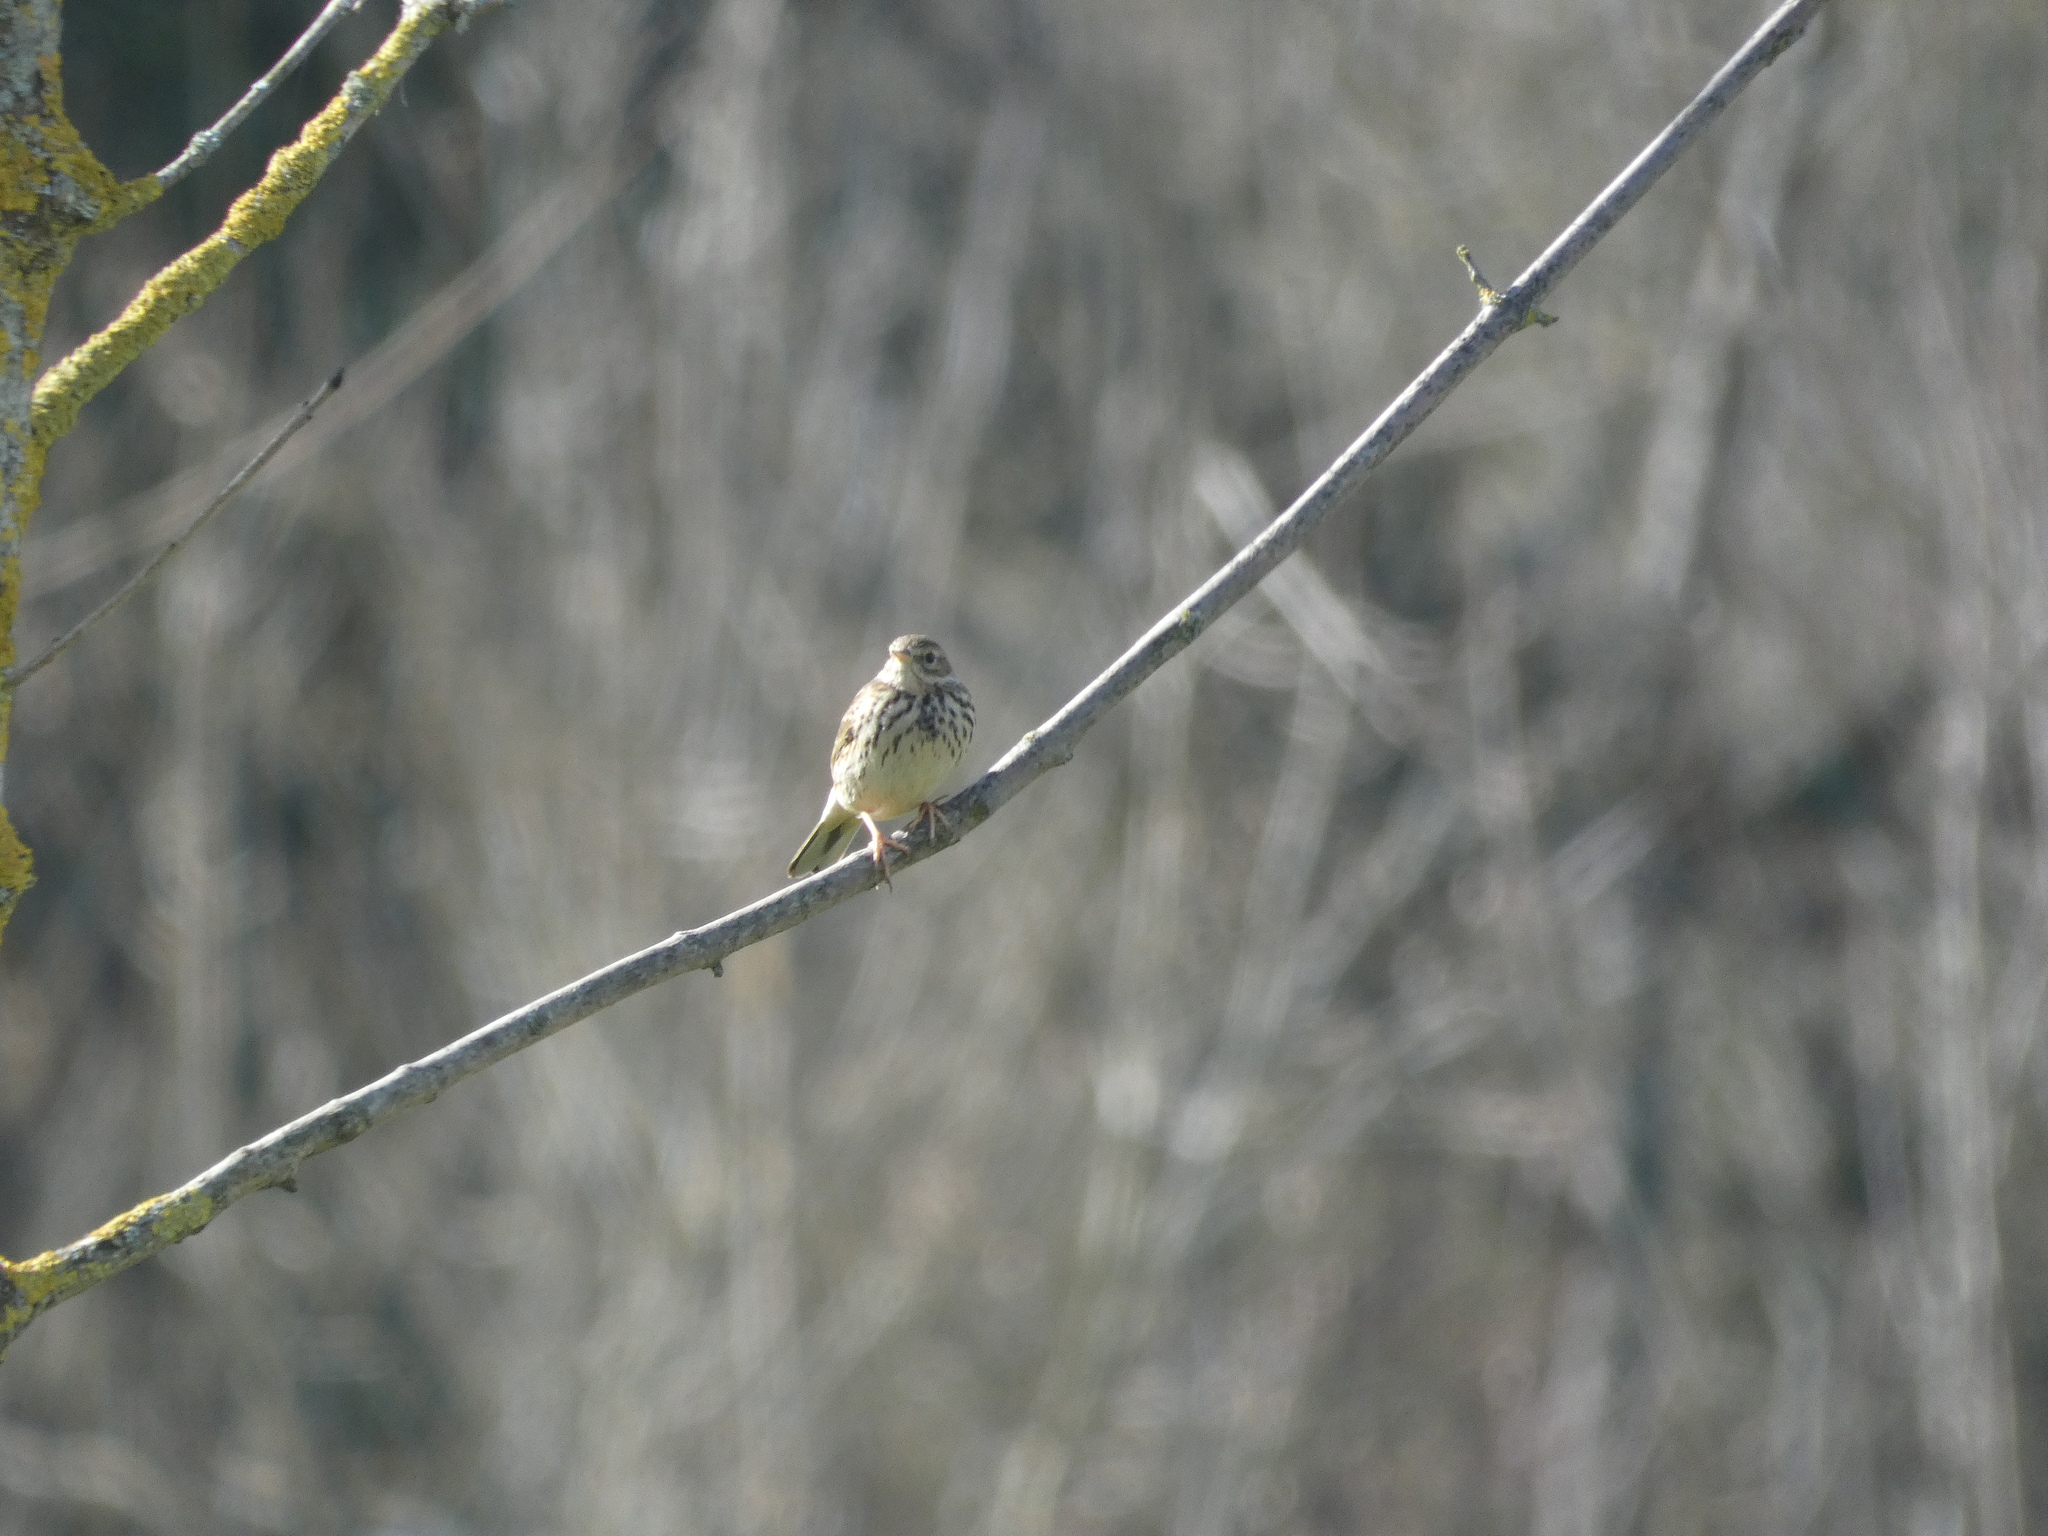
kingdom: Animalia
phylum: Chordata
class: Aves
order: Passeriformes
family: Motacillidae
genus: Anthus
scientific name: Anthus pratensis
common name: Meadow pipit
